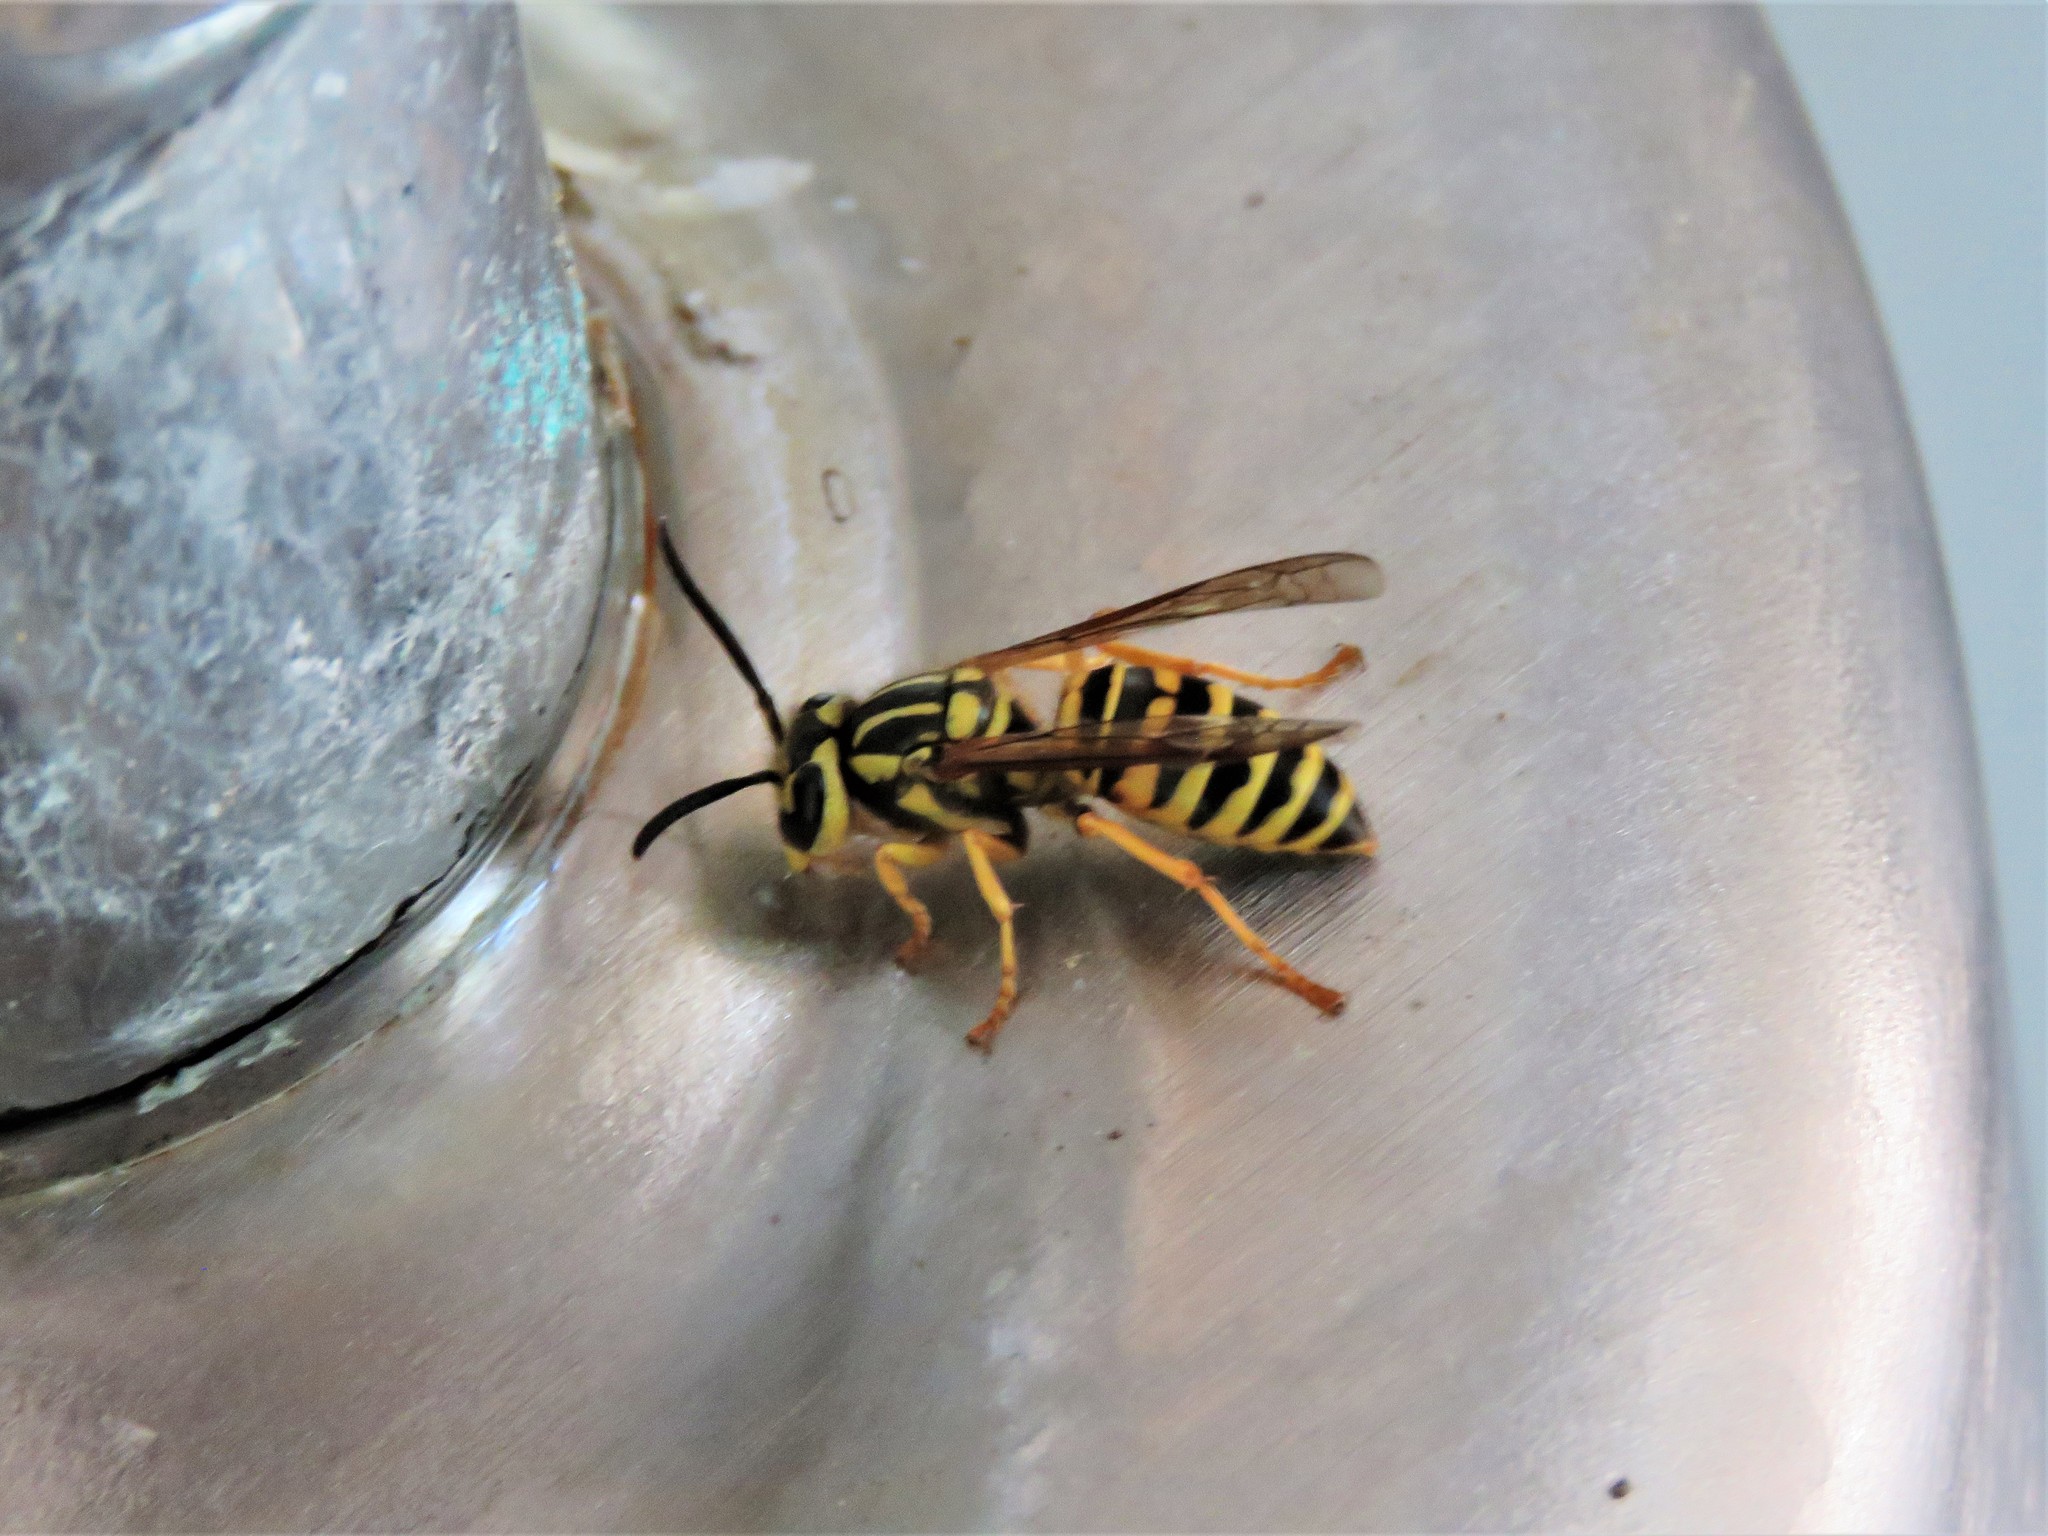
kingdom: Animalia
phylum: Arthropoda
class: Insecta
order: Hymenoptera
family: Vespidae
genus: Vespula
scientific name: Vespula squamosa
